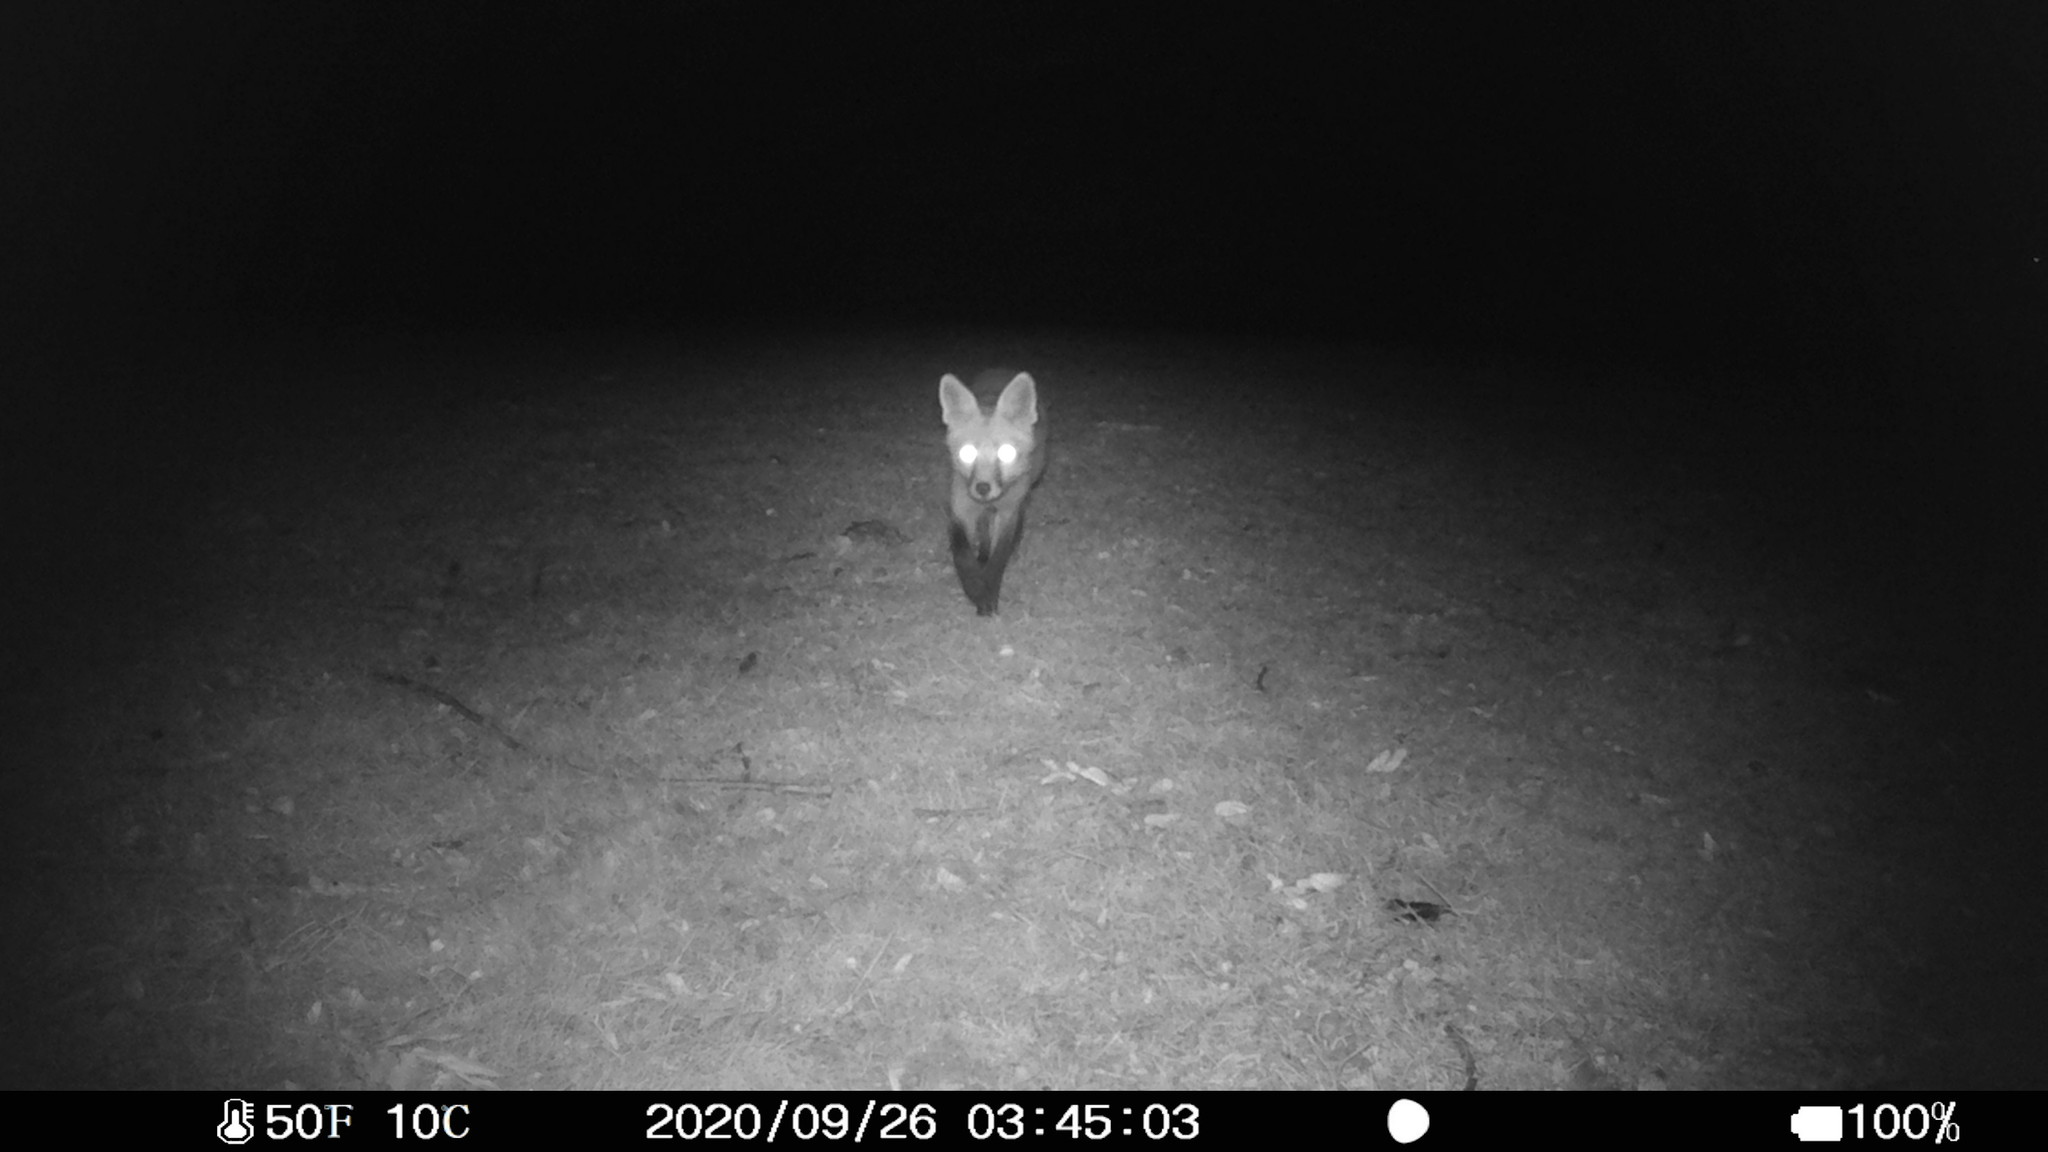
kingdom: Animalia
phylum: Chordata
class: Mammalia
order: Carnivora
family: Canidae
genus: Vulpes
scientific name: Vulpes vulpes
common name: Red fox
